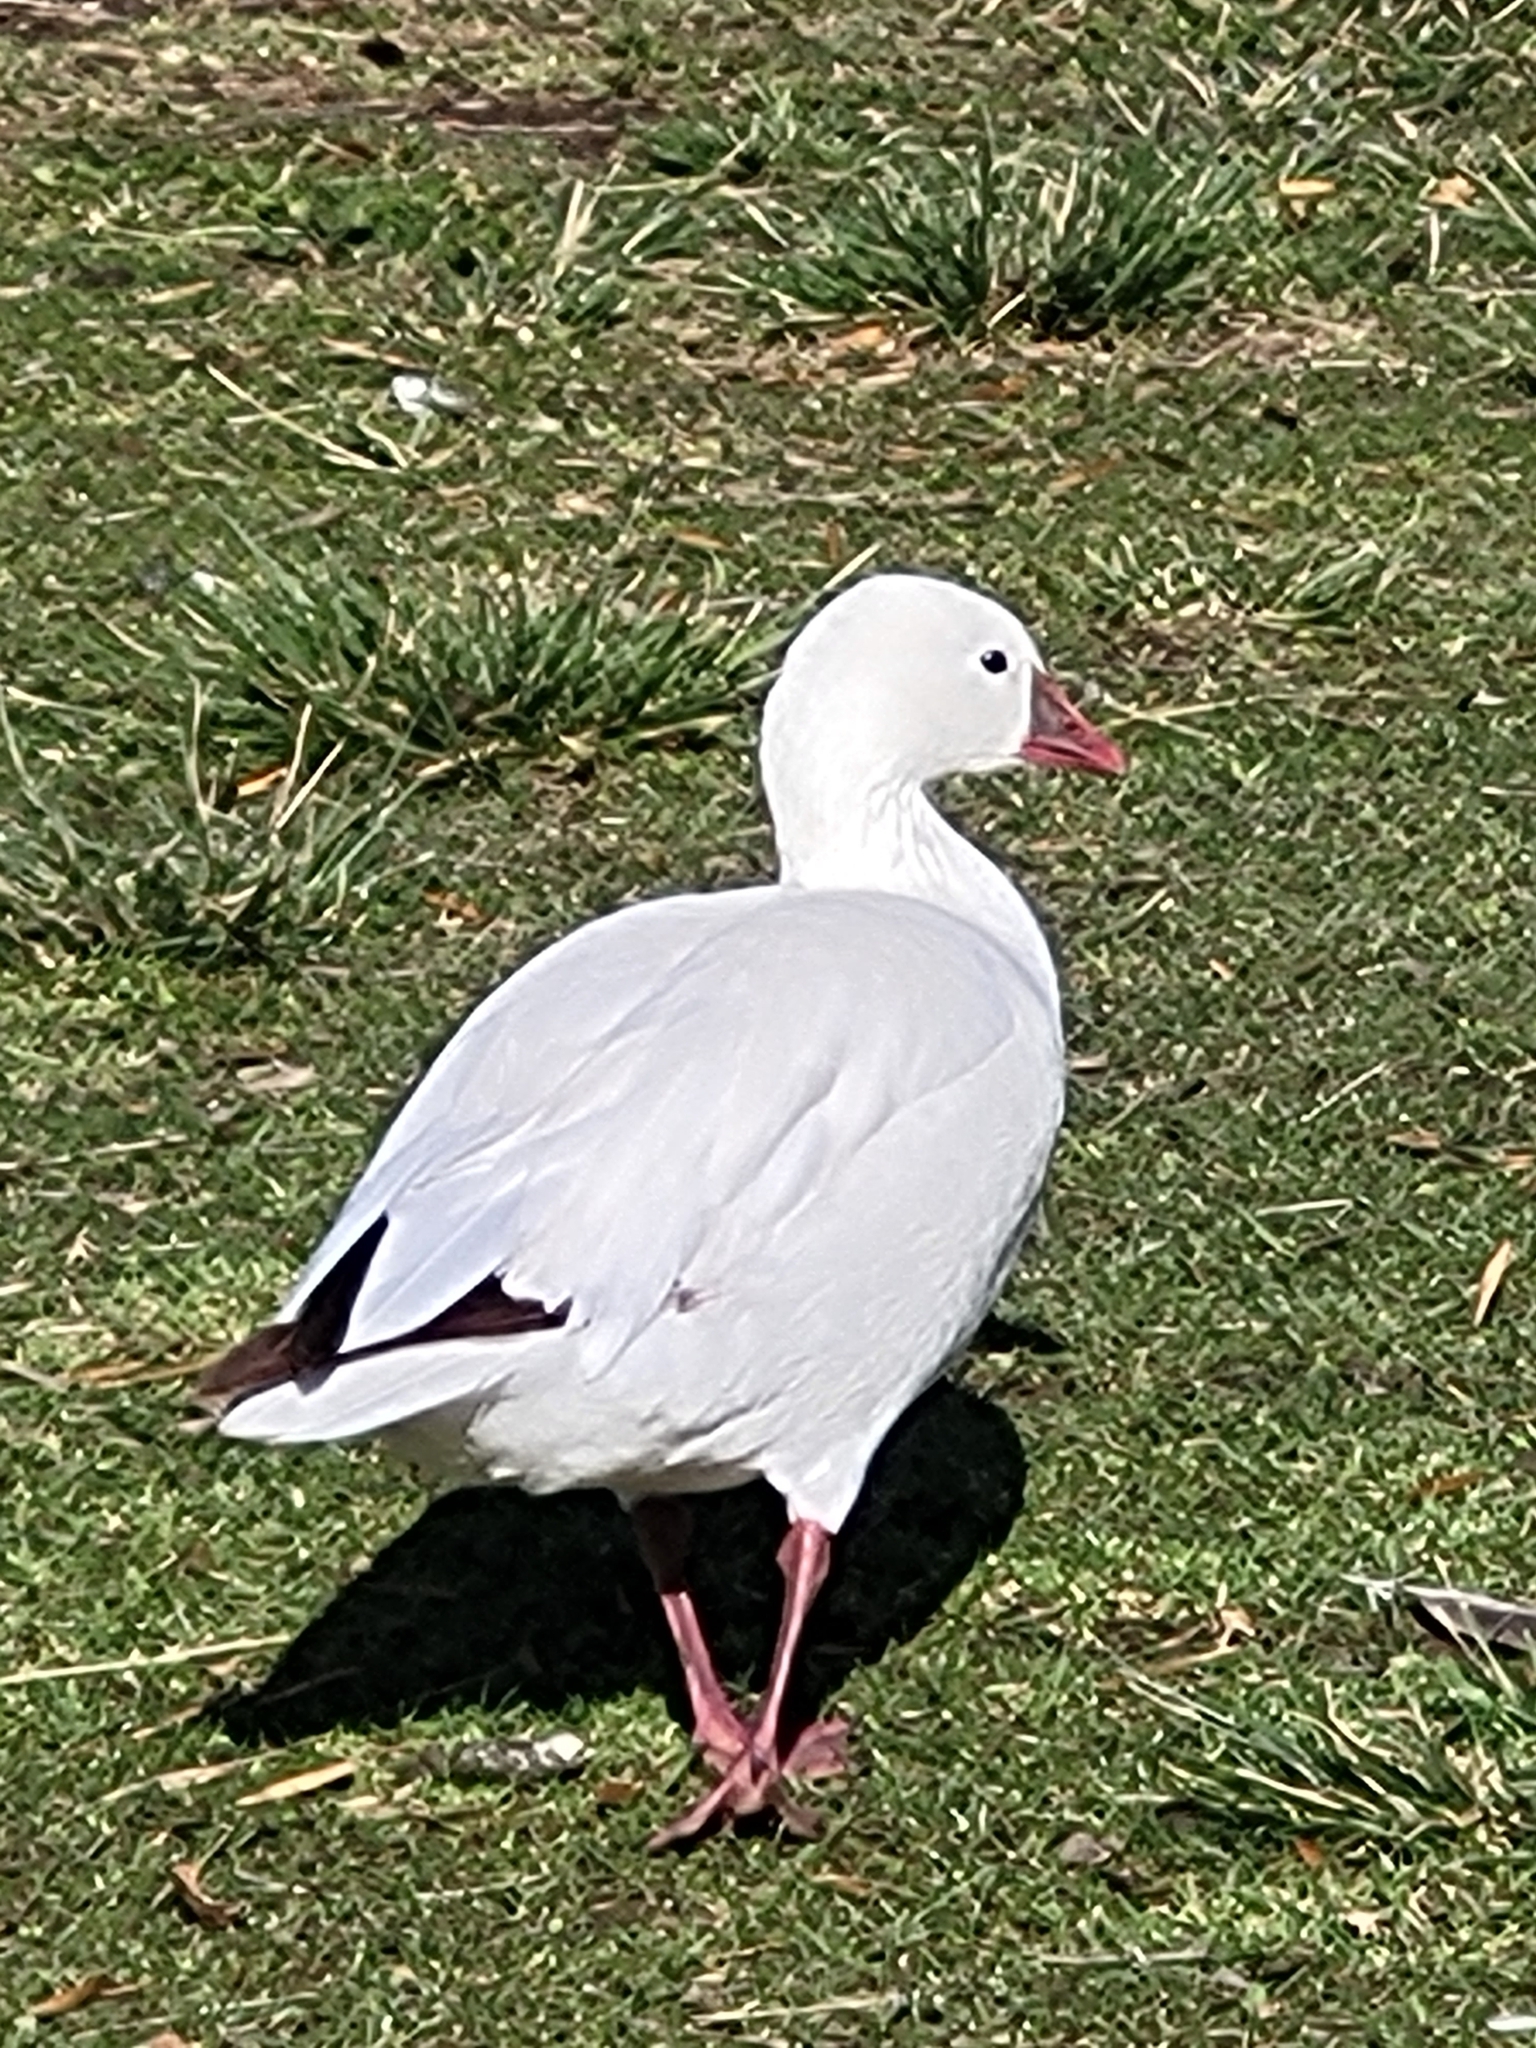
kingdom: Animalia
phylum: Chordata
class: Aves
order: Anseriformes
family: Anatidae
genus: Anser
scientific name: Anser rossii
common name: Ross's goose
